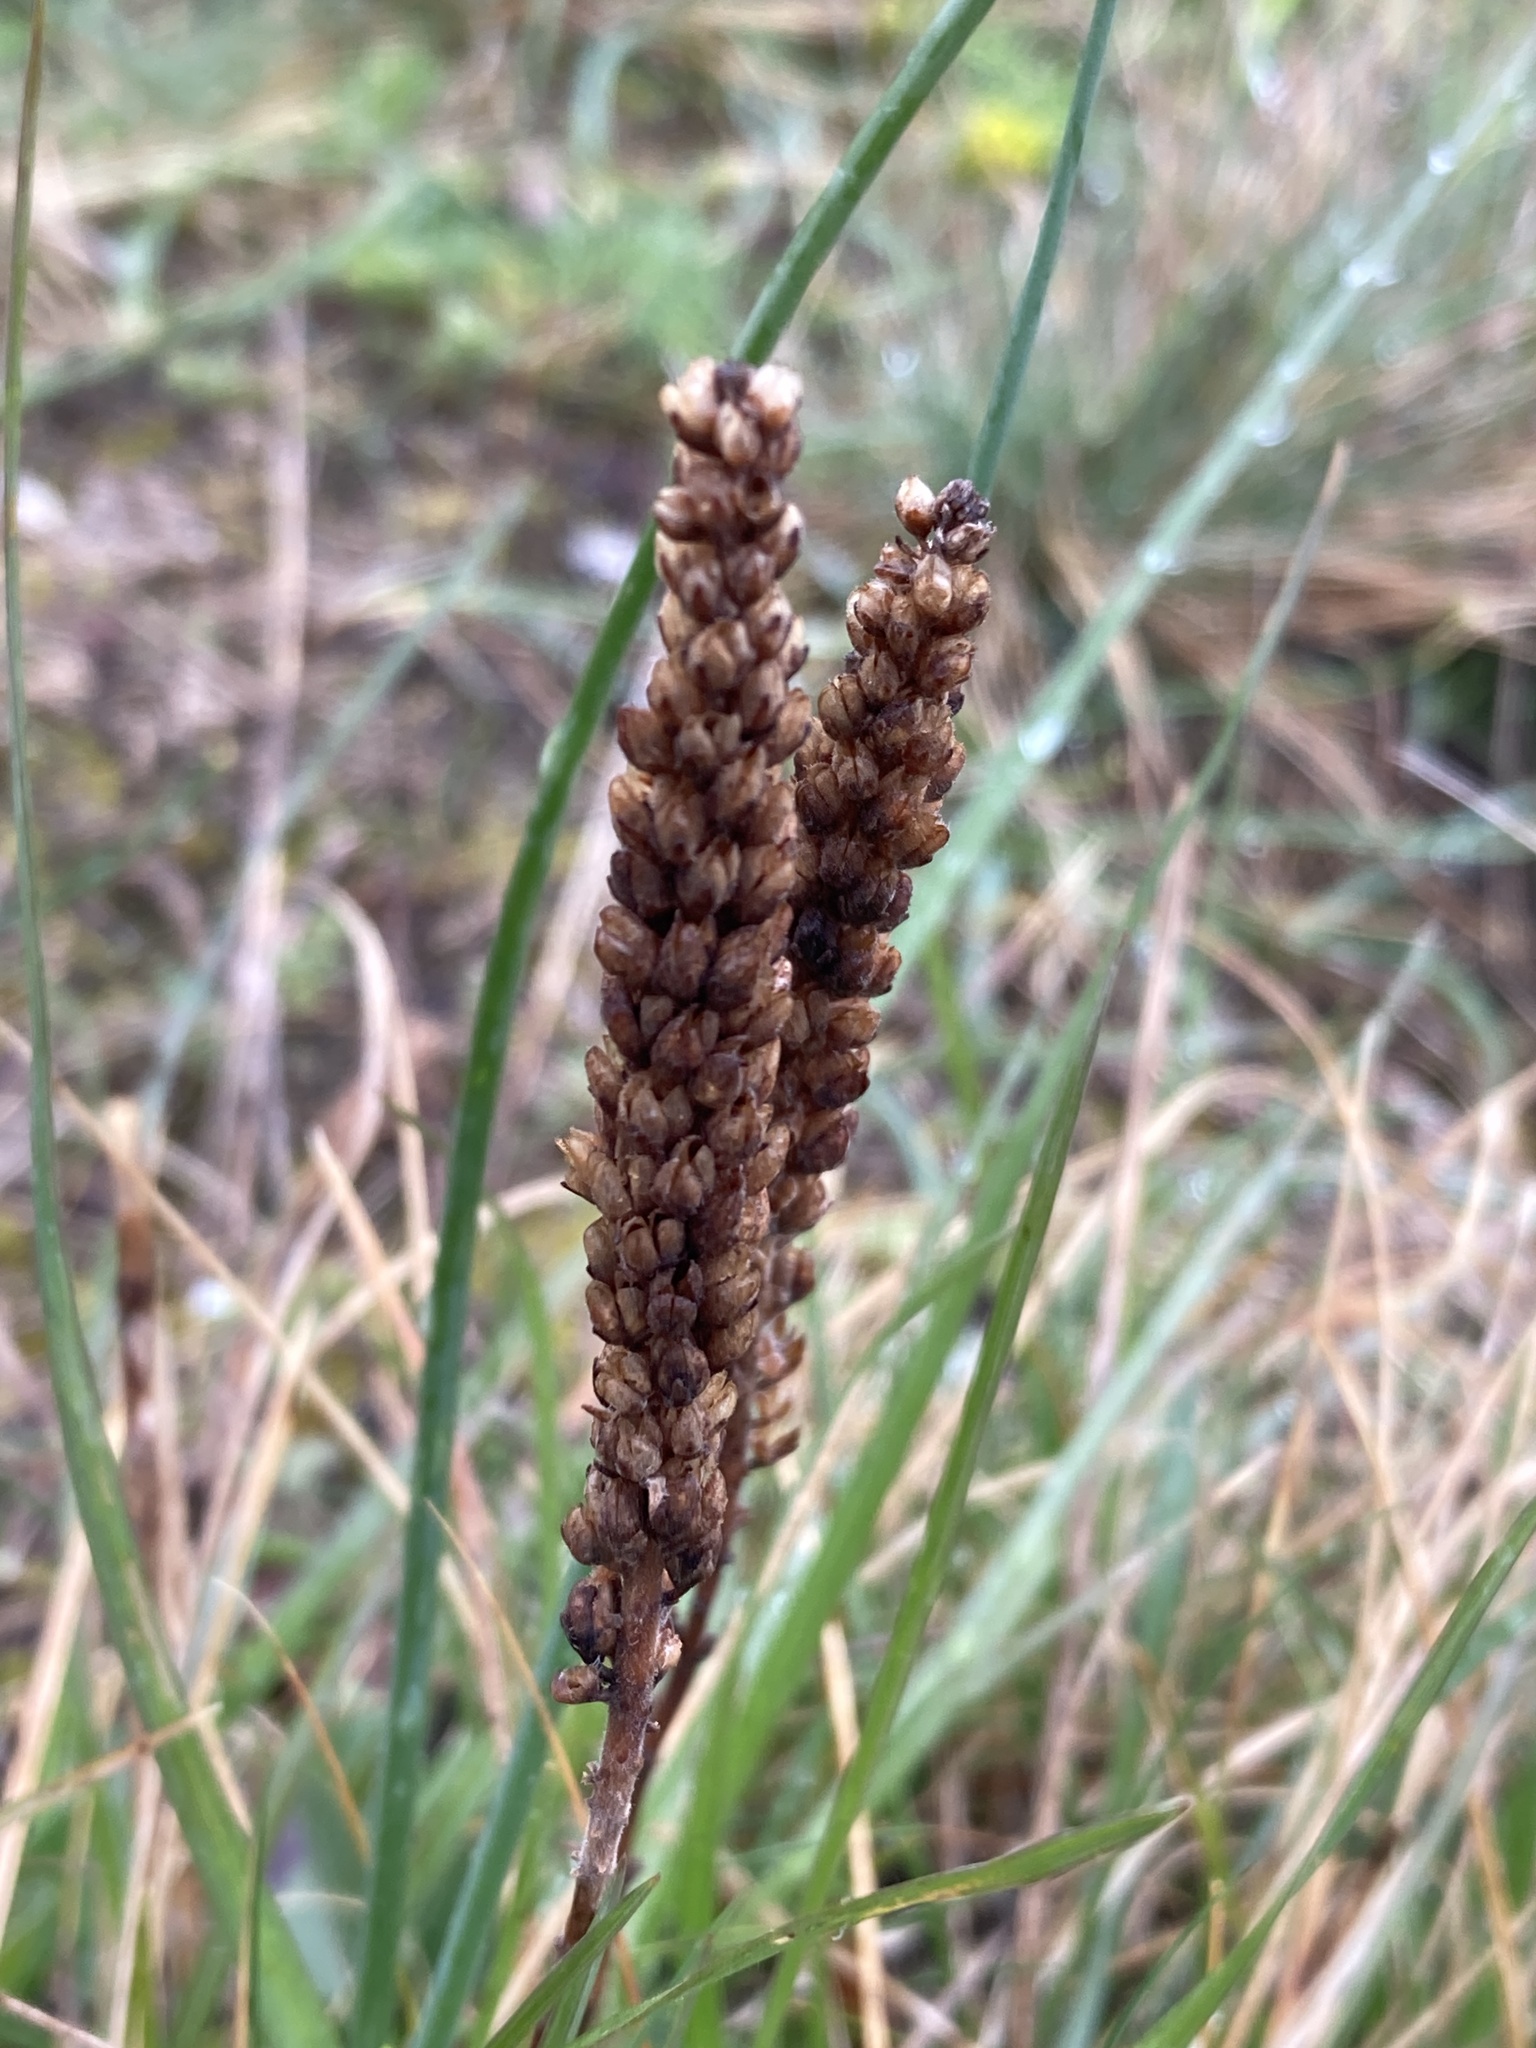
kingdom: Plantae
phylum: Tracheophyta
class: Magnoliopsida
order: Lamiales
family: Plantaginaceae
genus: Veronica
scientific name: Veronica spicata
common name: Spiked speedwell
